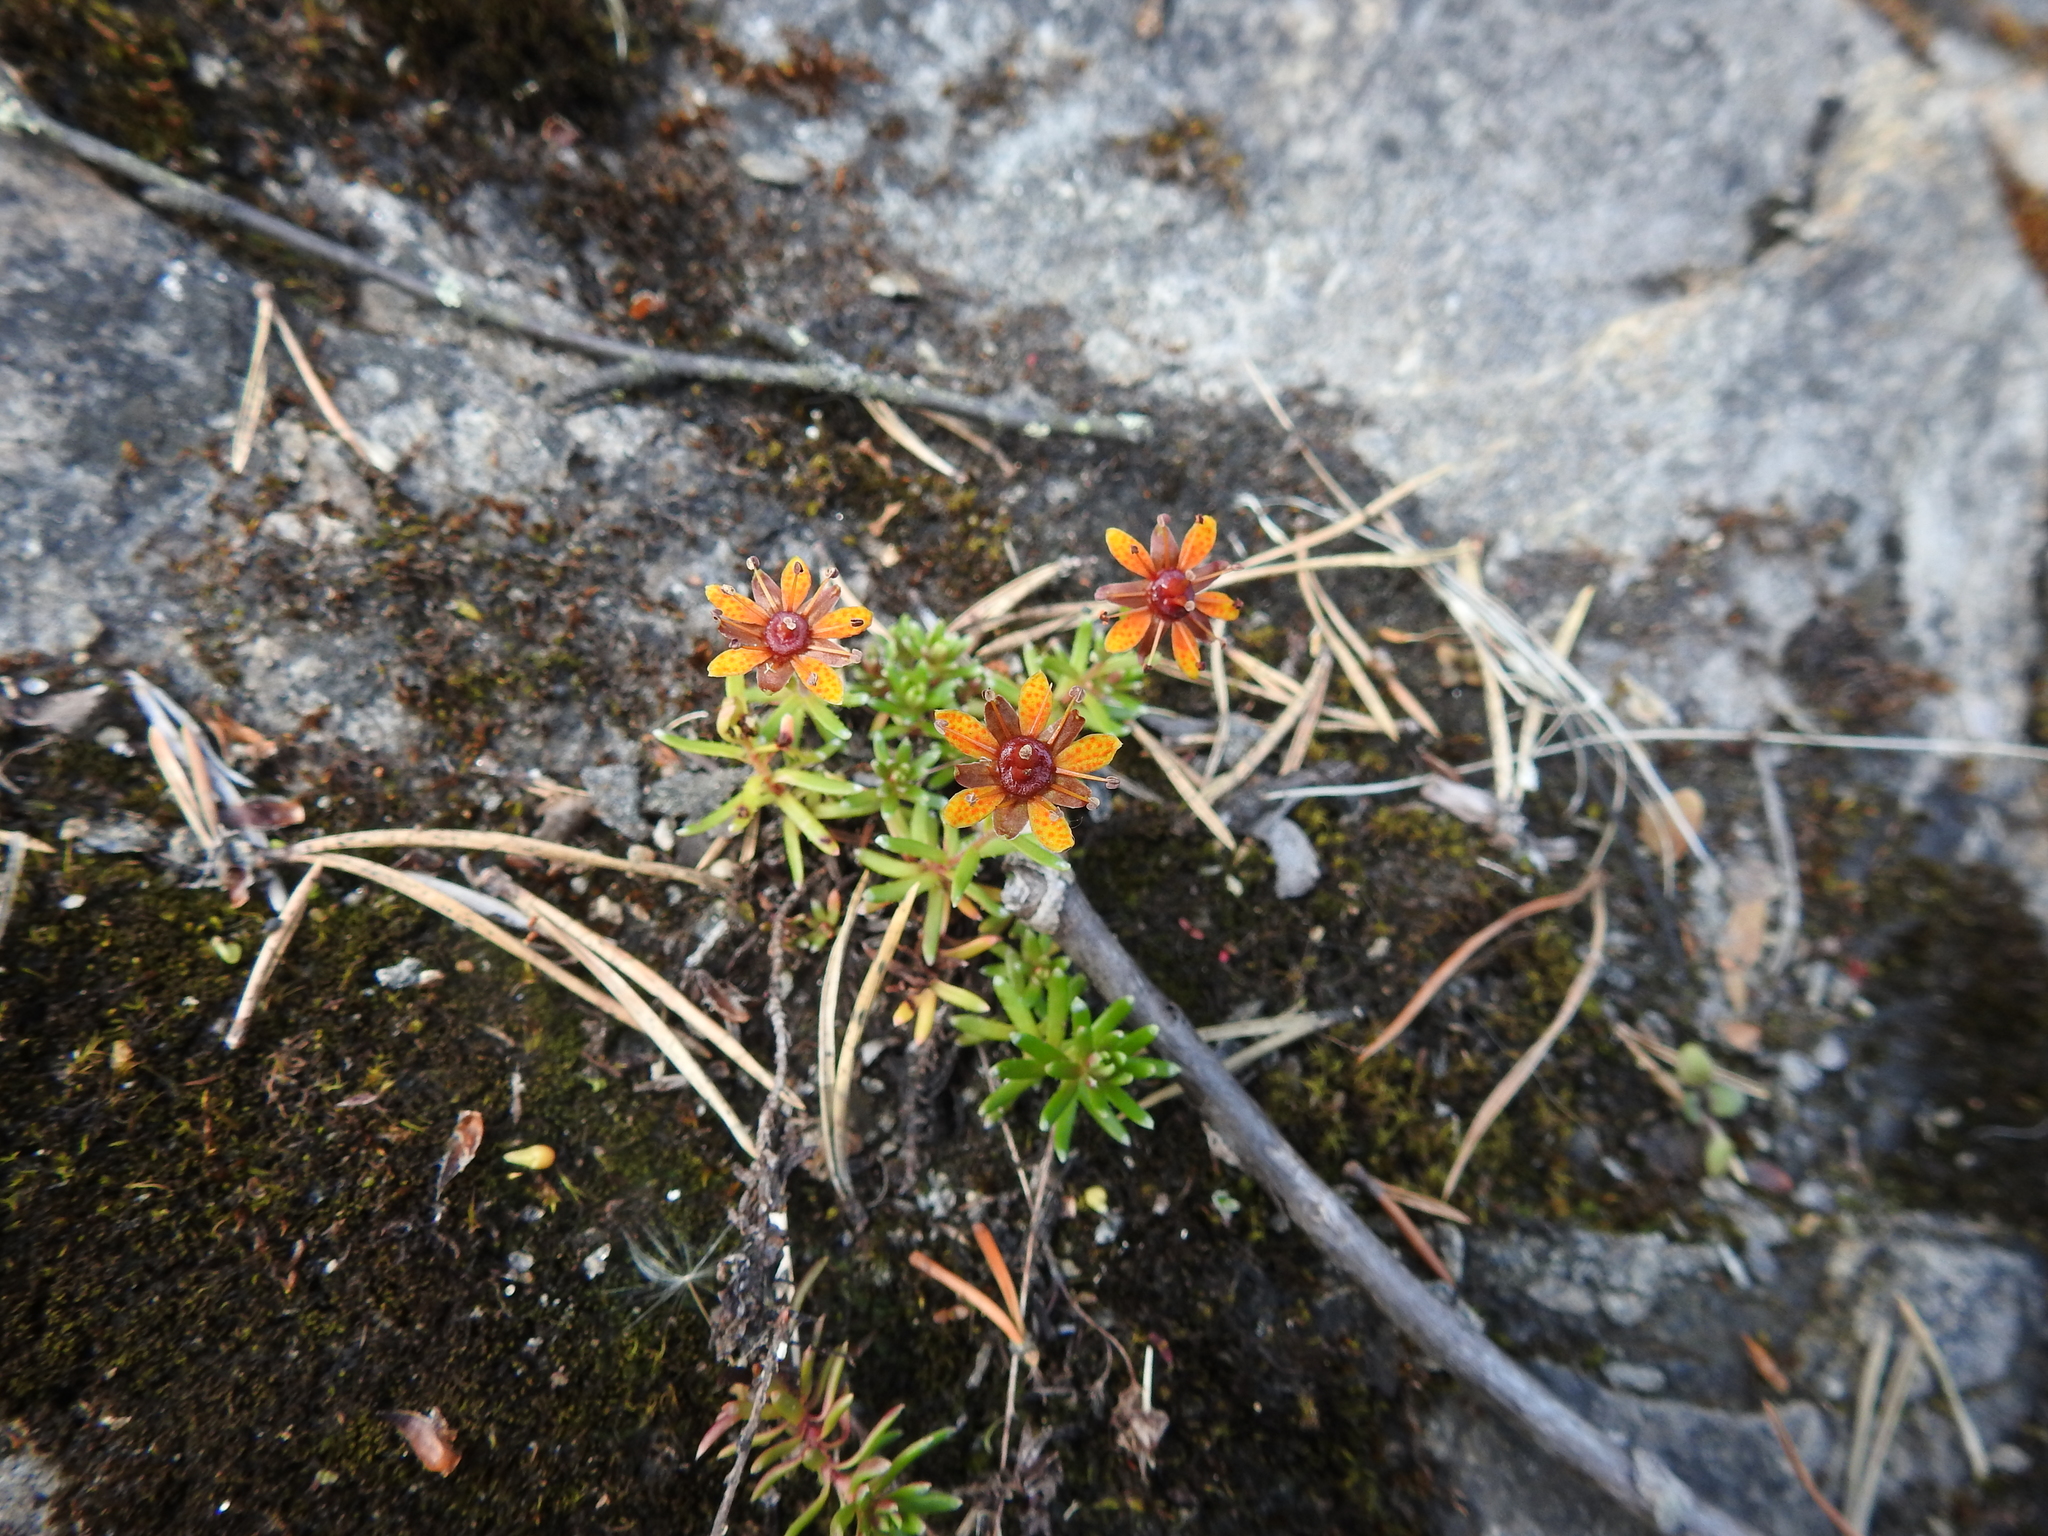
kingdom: Plantae
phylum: Tracheophyta
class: Magnoliopsida
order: Saxifragales
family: Saxifragaceae
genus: Saxifraga
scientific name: Saxifraga aizoides
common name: Yellow mountain saxifrage
